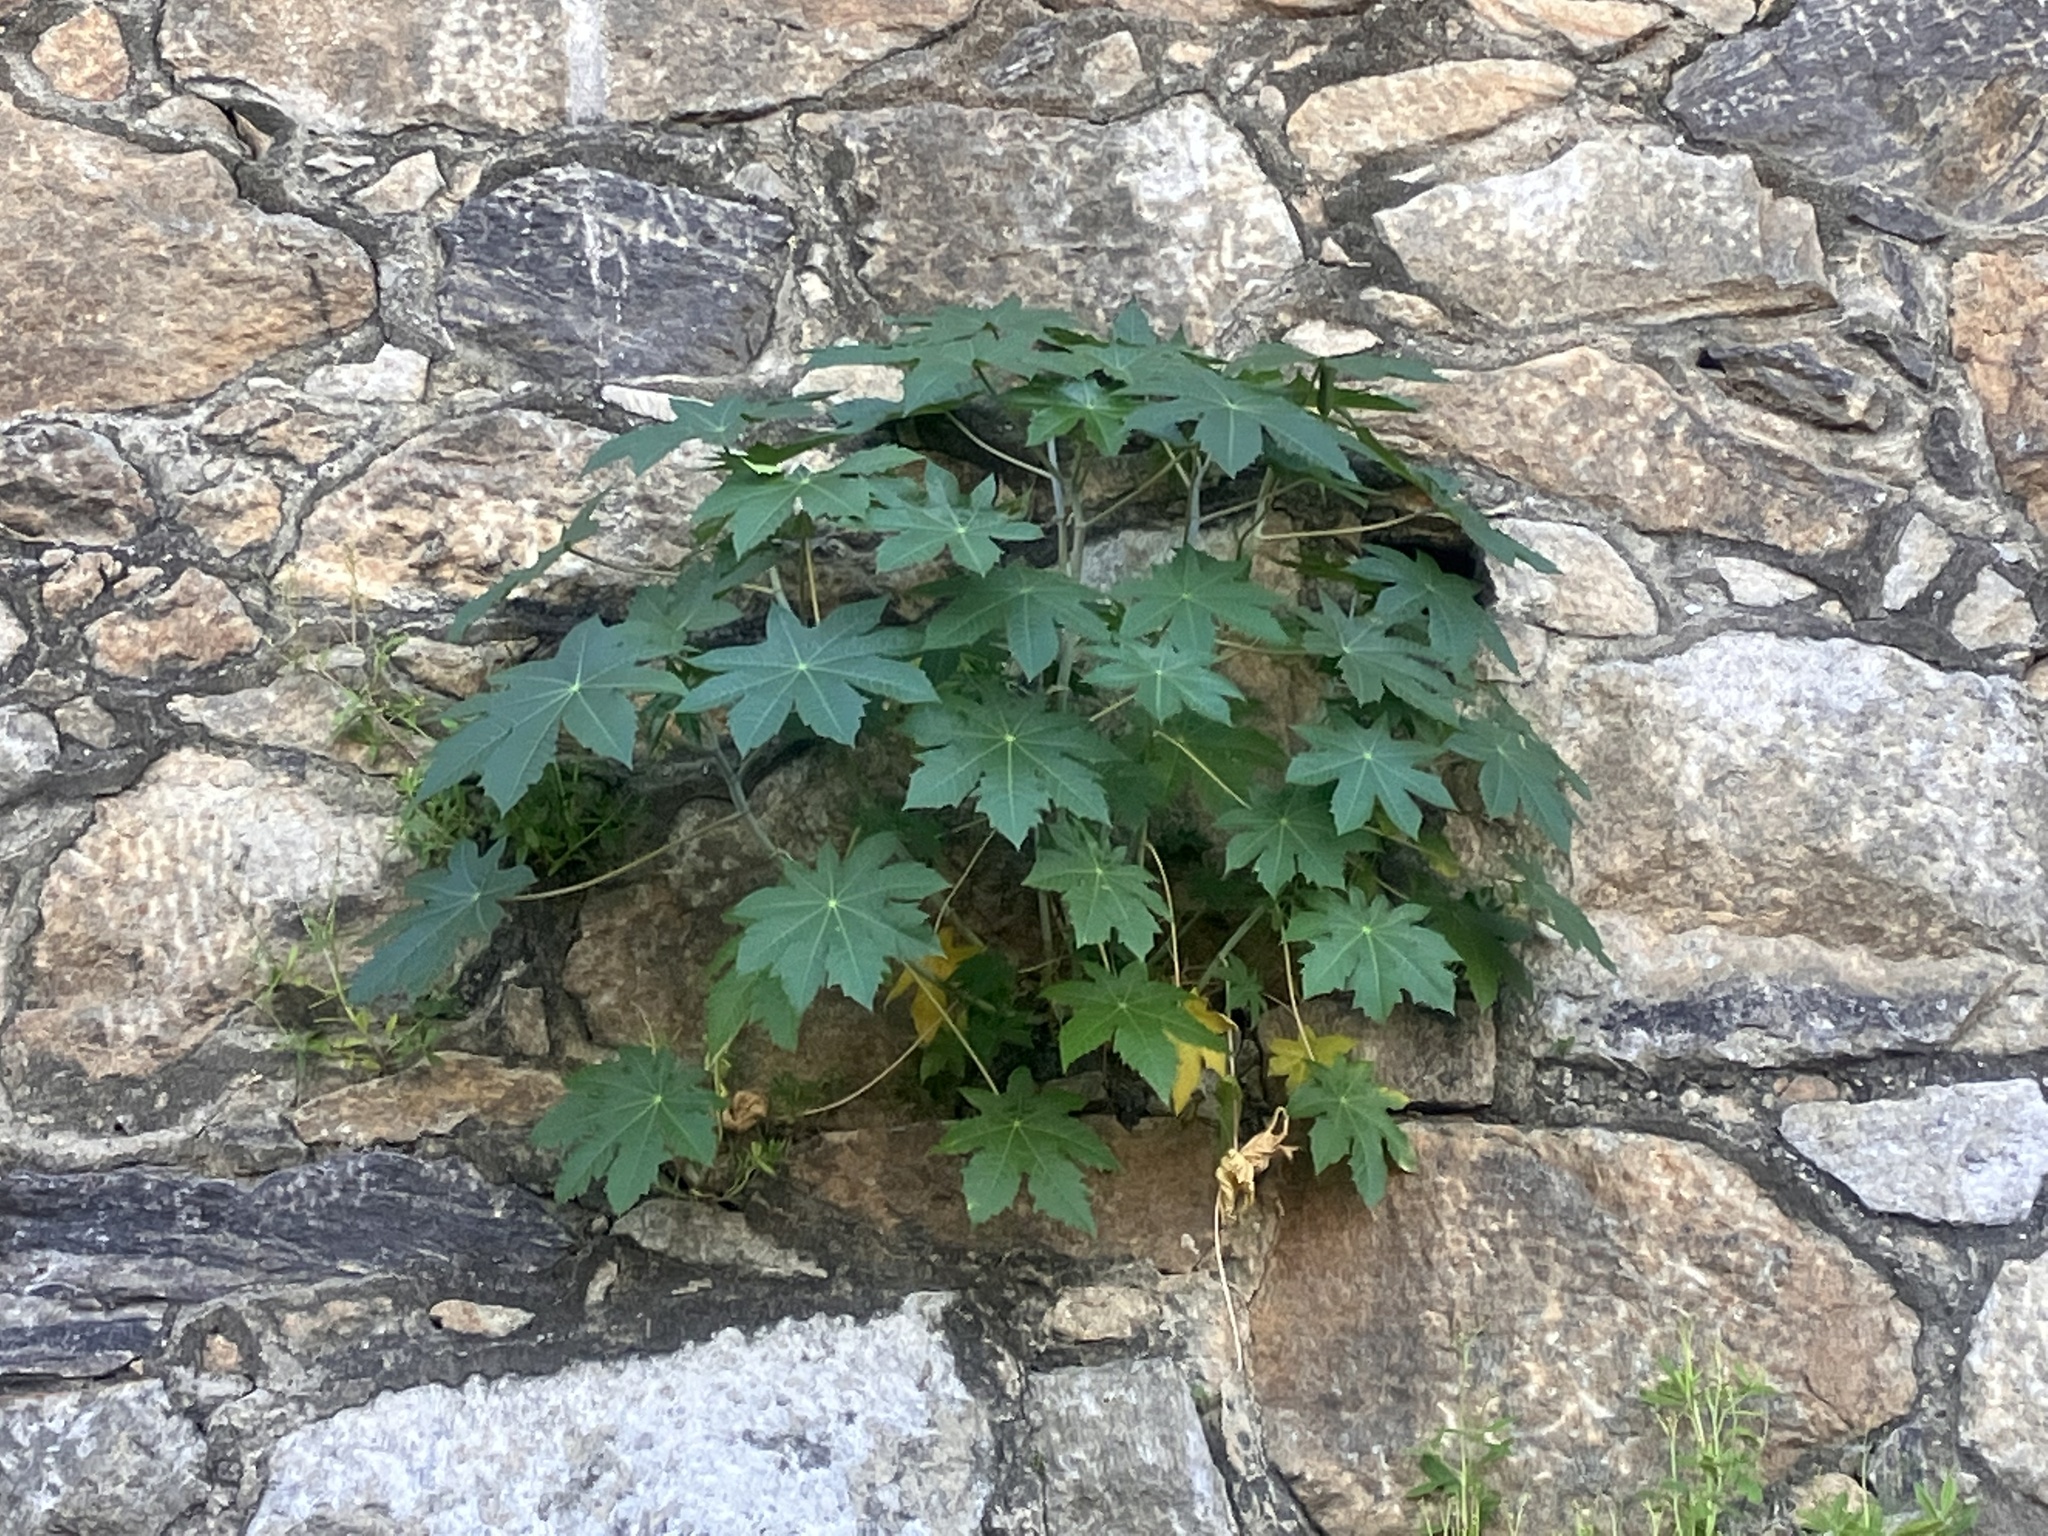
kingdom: Plantae
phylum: Tracheophyta
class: Magnoliopsida
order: Malpighiales
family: Euphorbiaceae
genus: Ricinus
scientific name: Ricinus communis
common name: Castor-oil-plant
